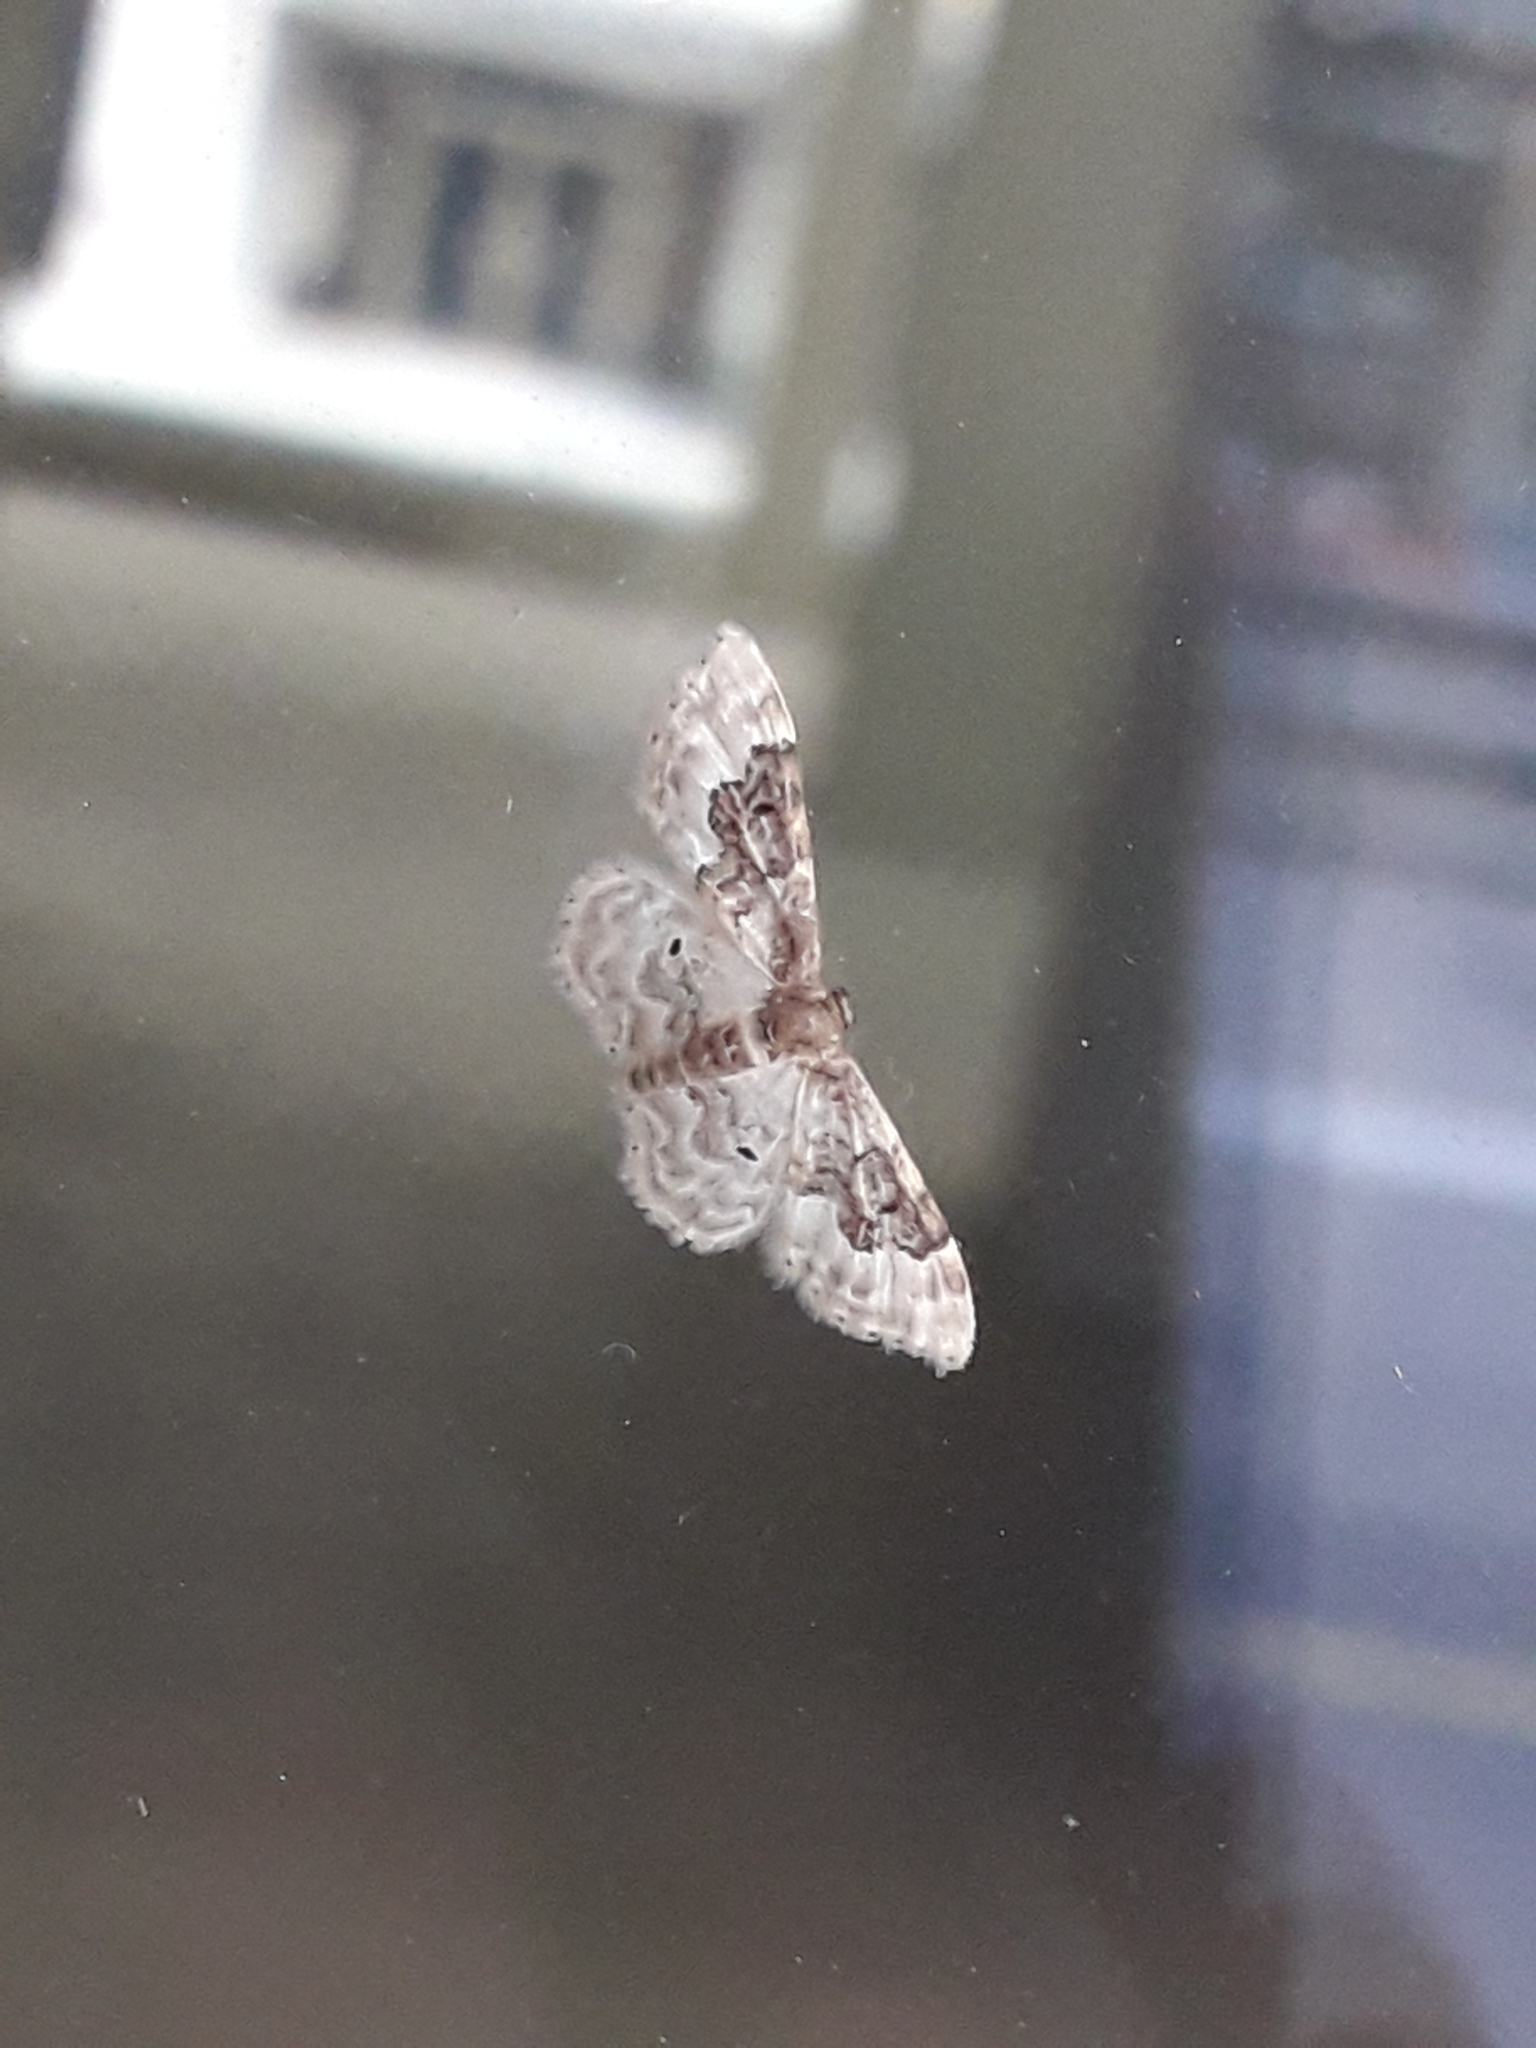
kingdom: Animalia
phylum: Arthropoda
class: Insecta
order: Lepidoptera
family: Geometridae
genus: Idaea
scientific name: Idaea rusticata
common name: Least carpet
